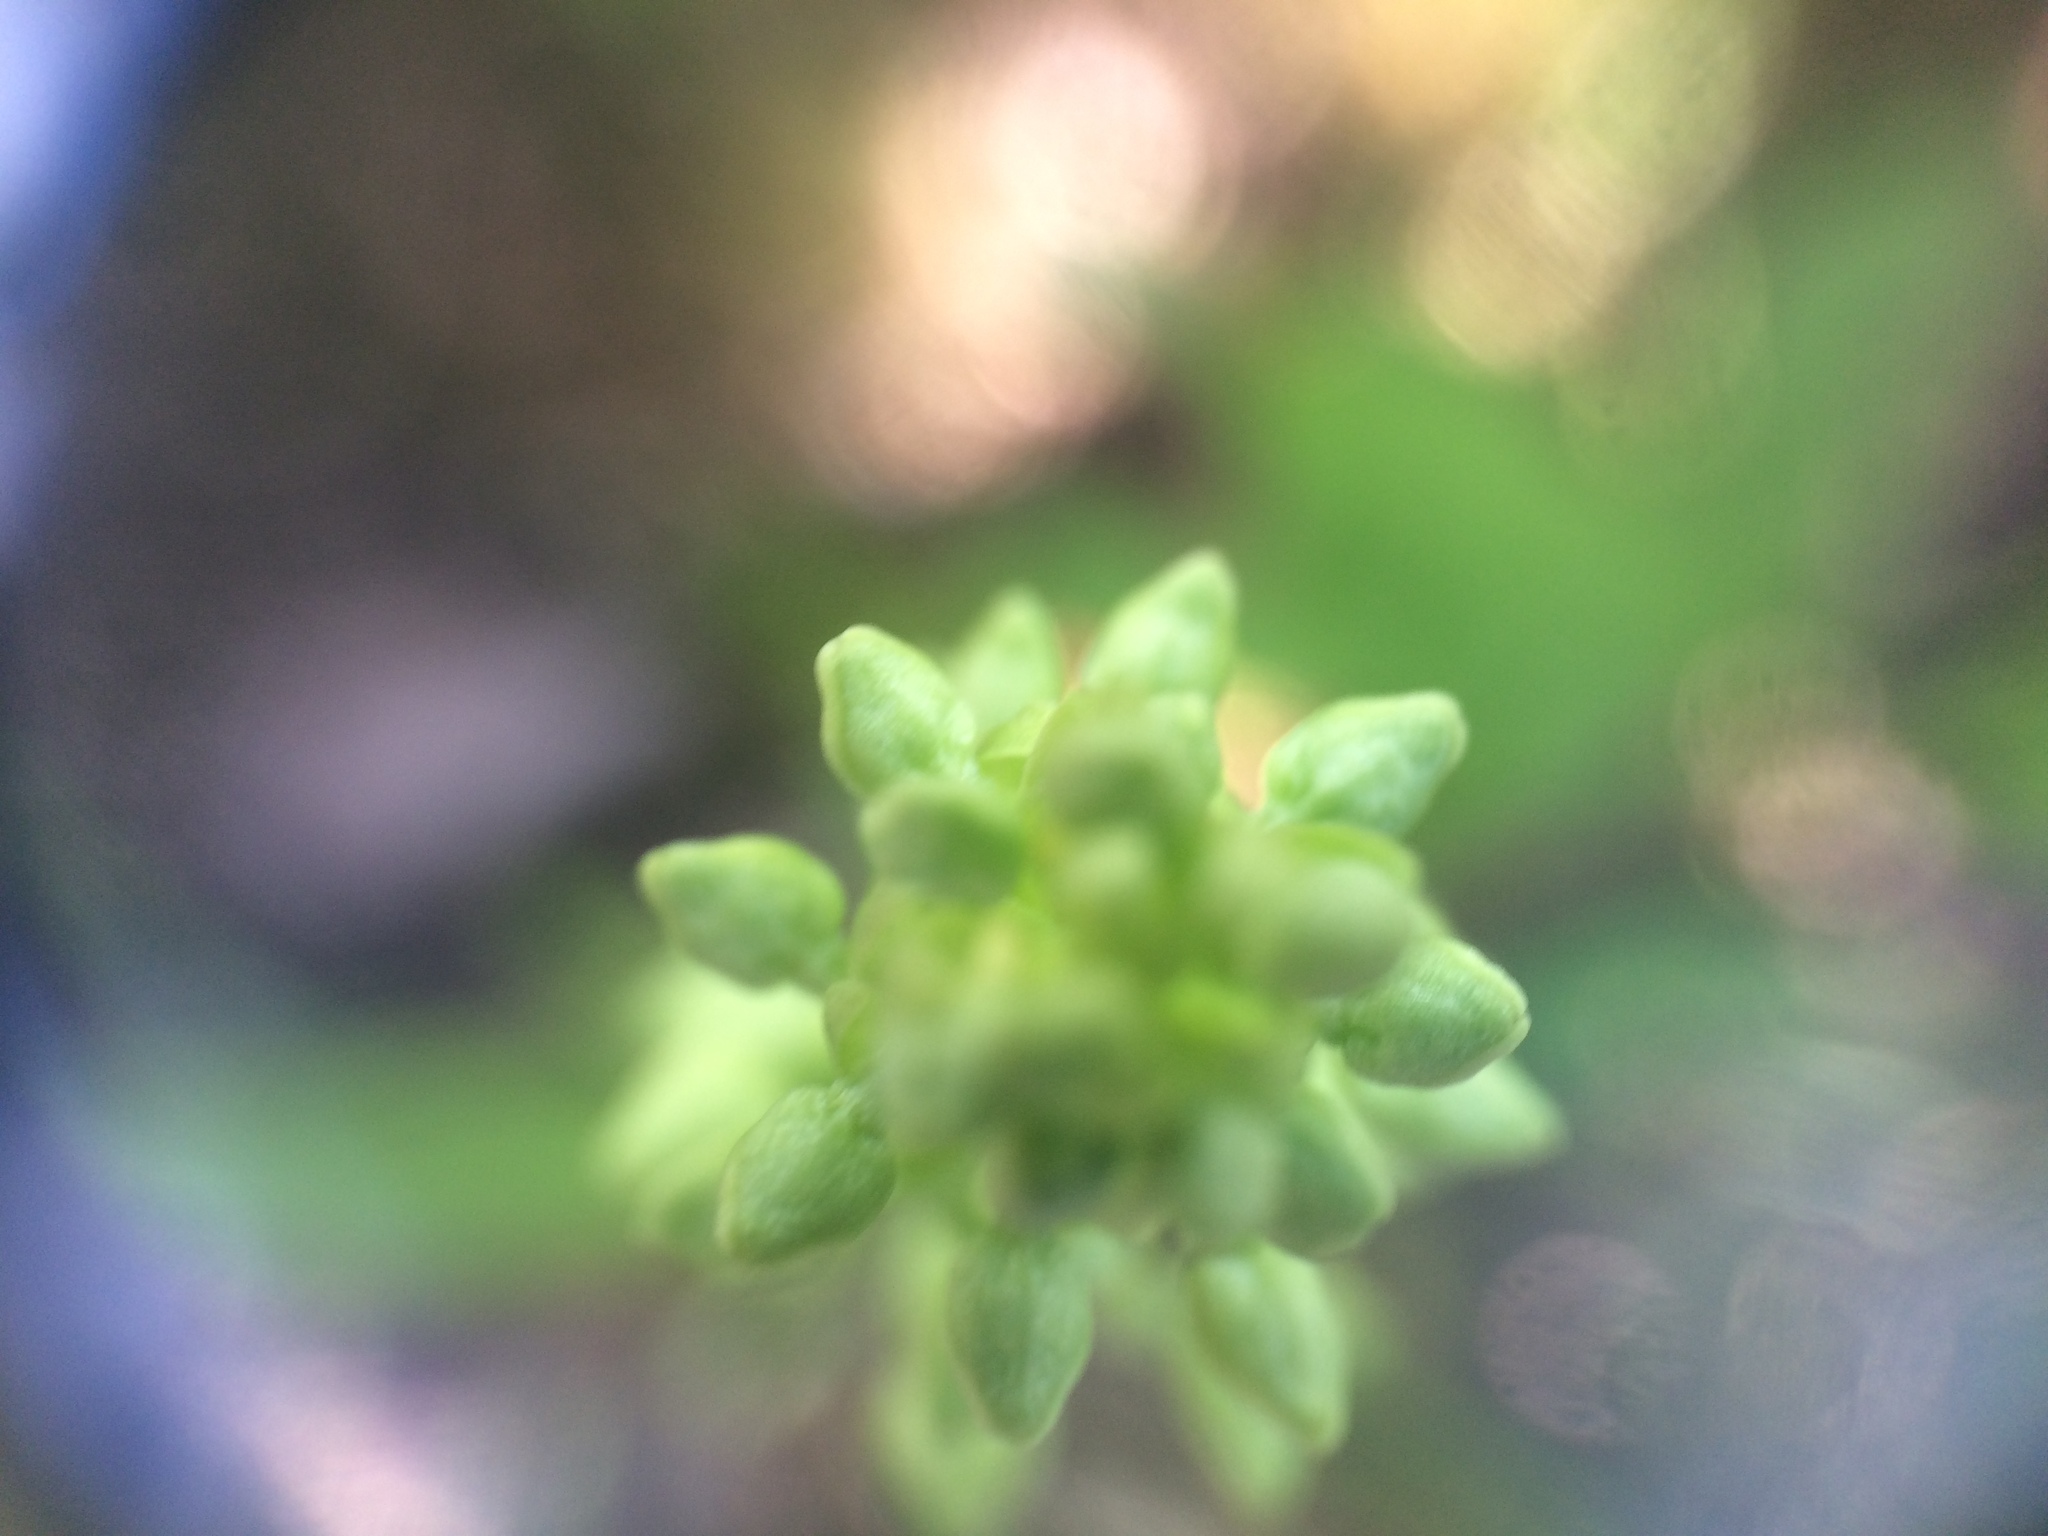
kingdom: Plantae
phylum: Tracheophyta
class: Liliopsida
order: Asparagales
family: Orchidaceae
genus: Platanthera
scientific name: Platanthera huronensis
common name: Fragrant green orchid
